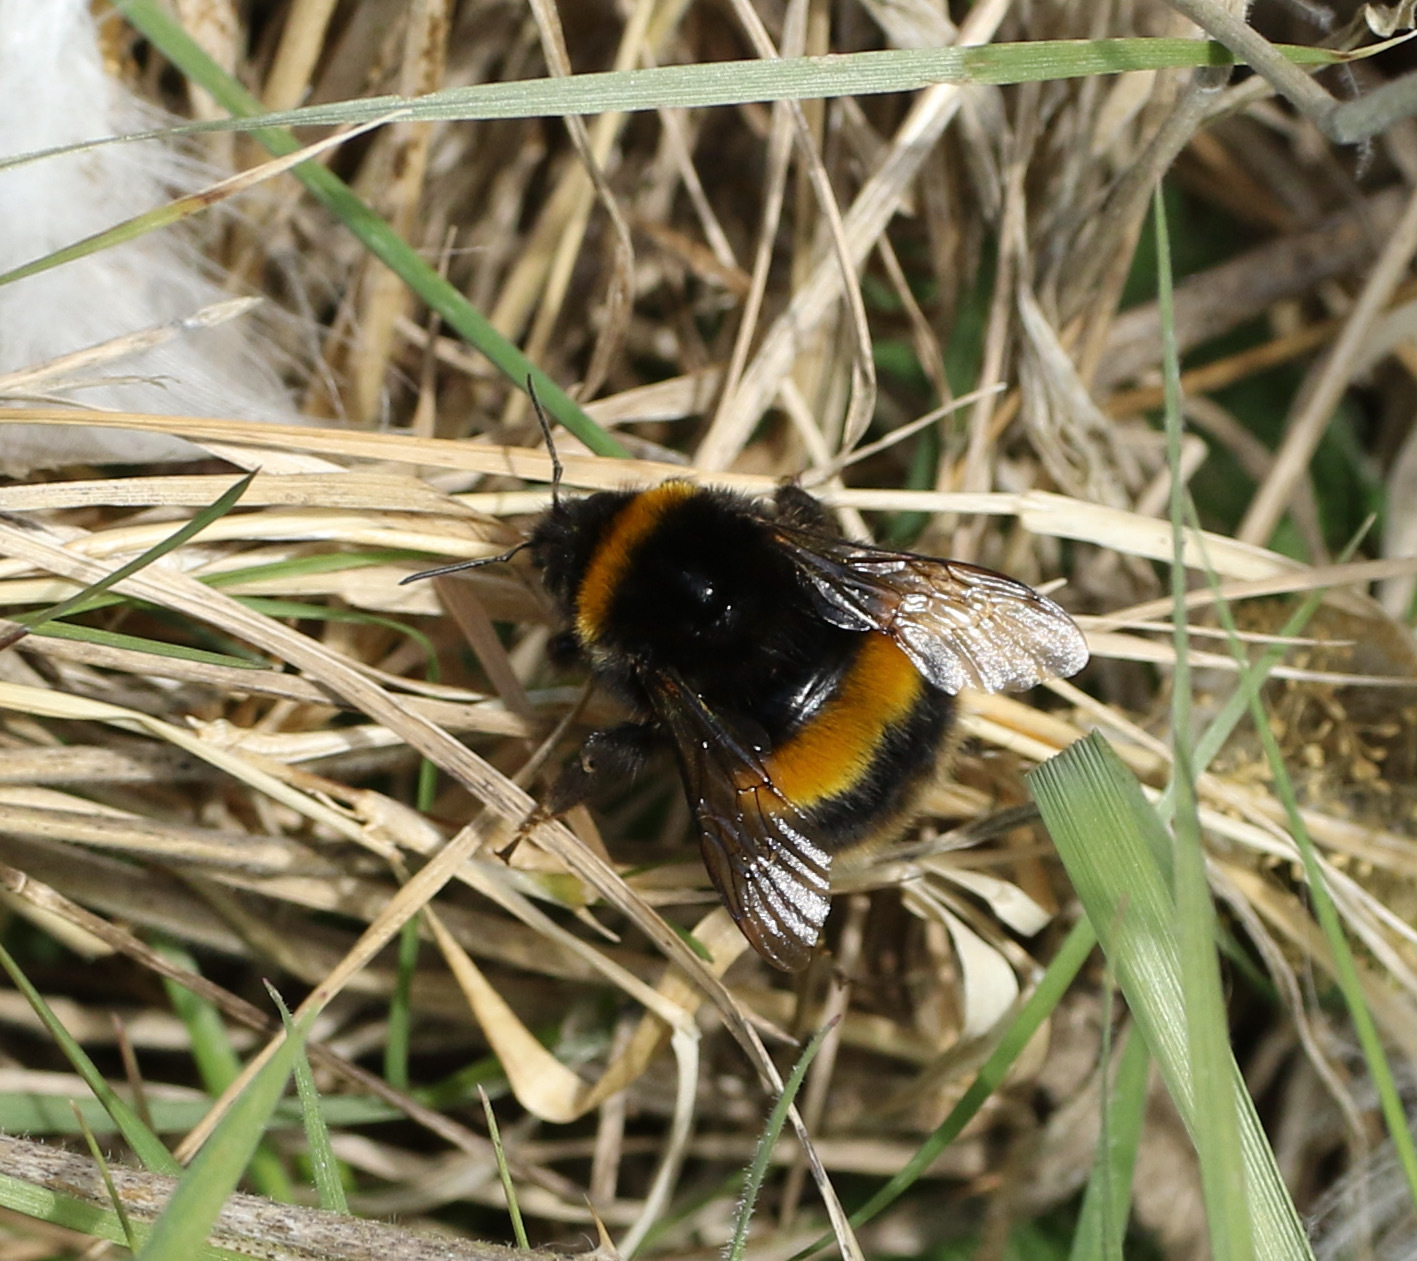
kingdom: Animalia
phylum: Arthropoda
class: Insecta
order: Hymenoptera
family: Apidae
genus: Bombus
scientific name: Bombus terrestris
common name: Buff-tailed bumblebee
